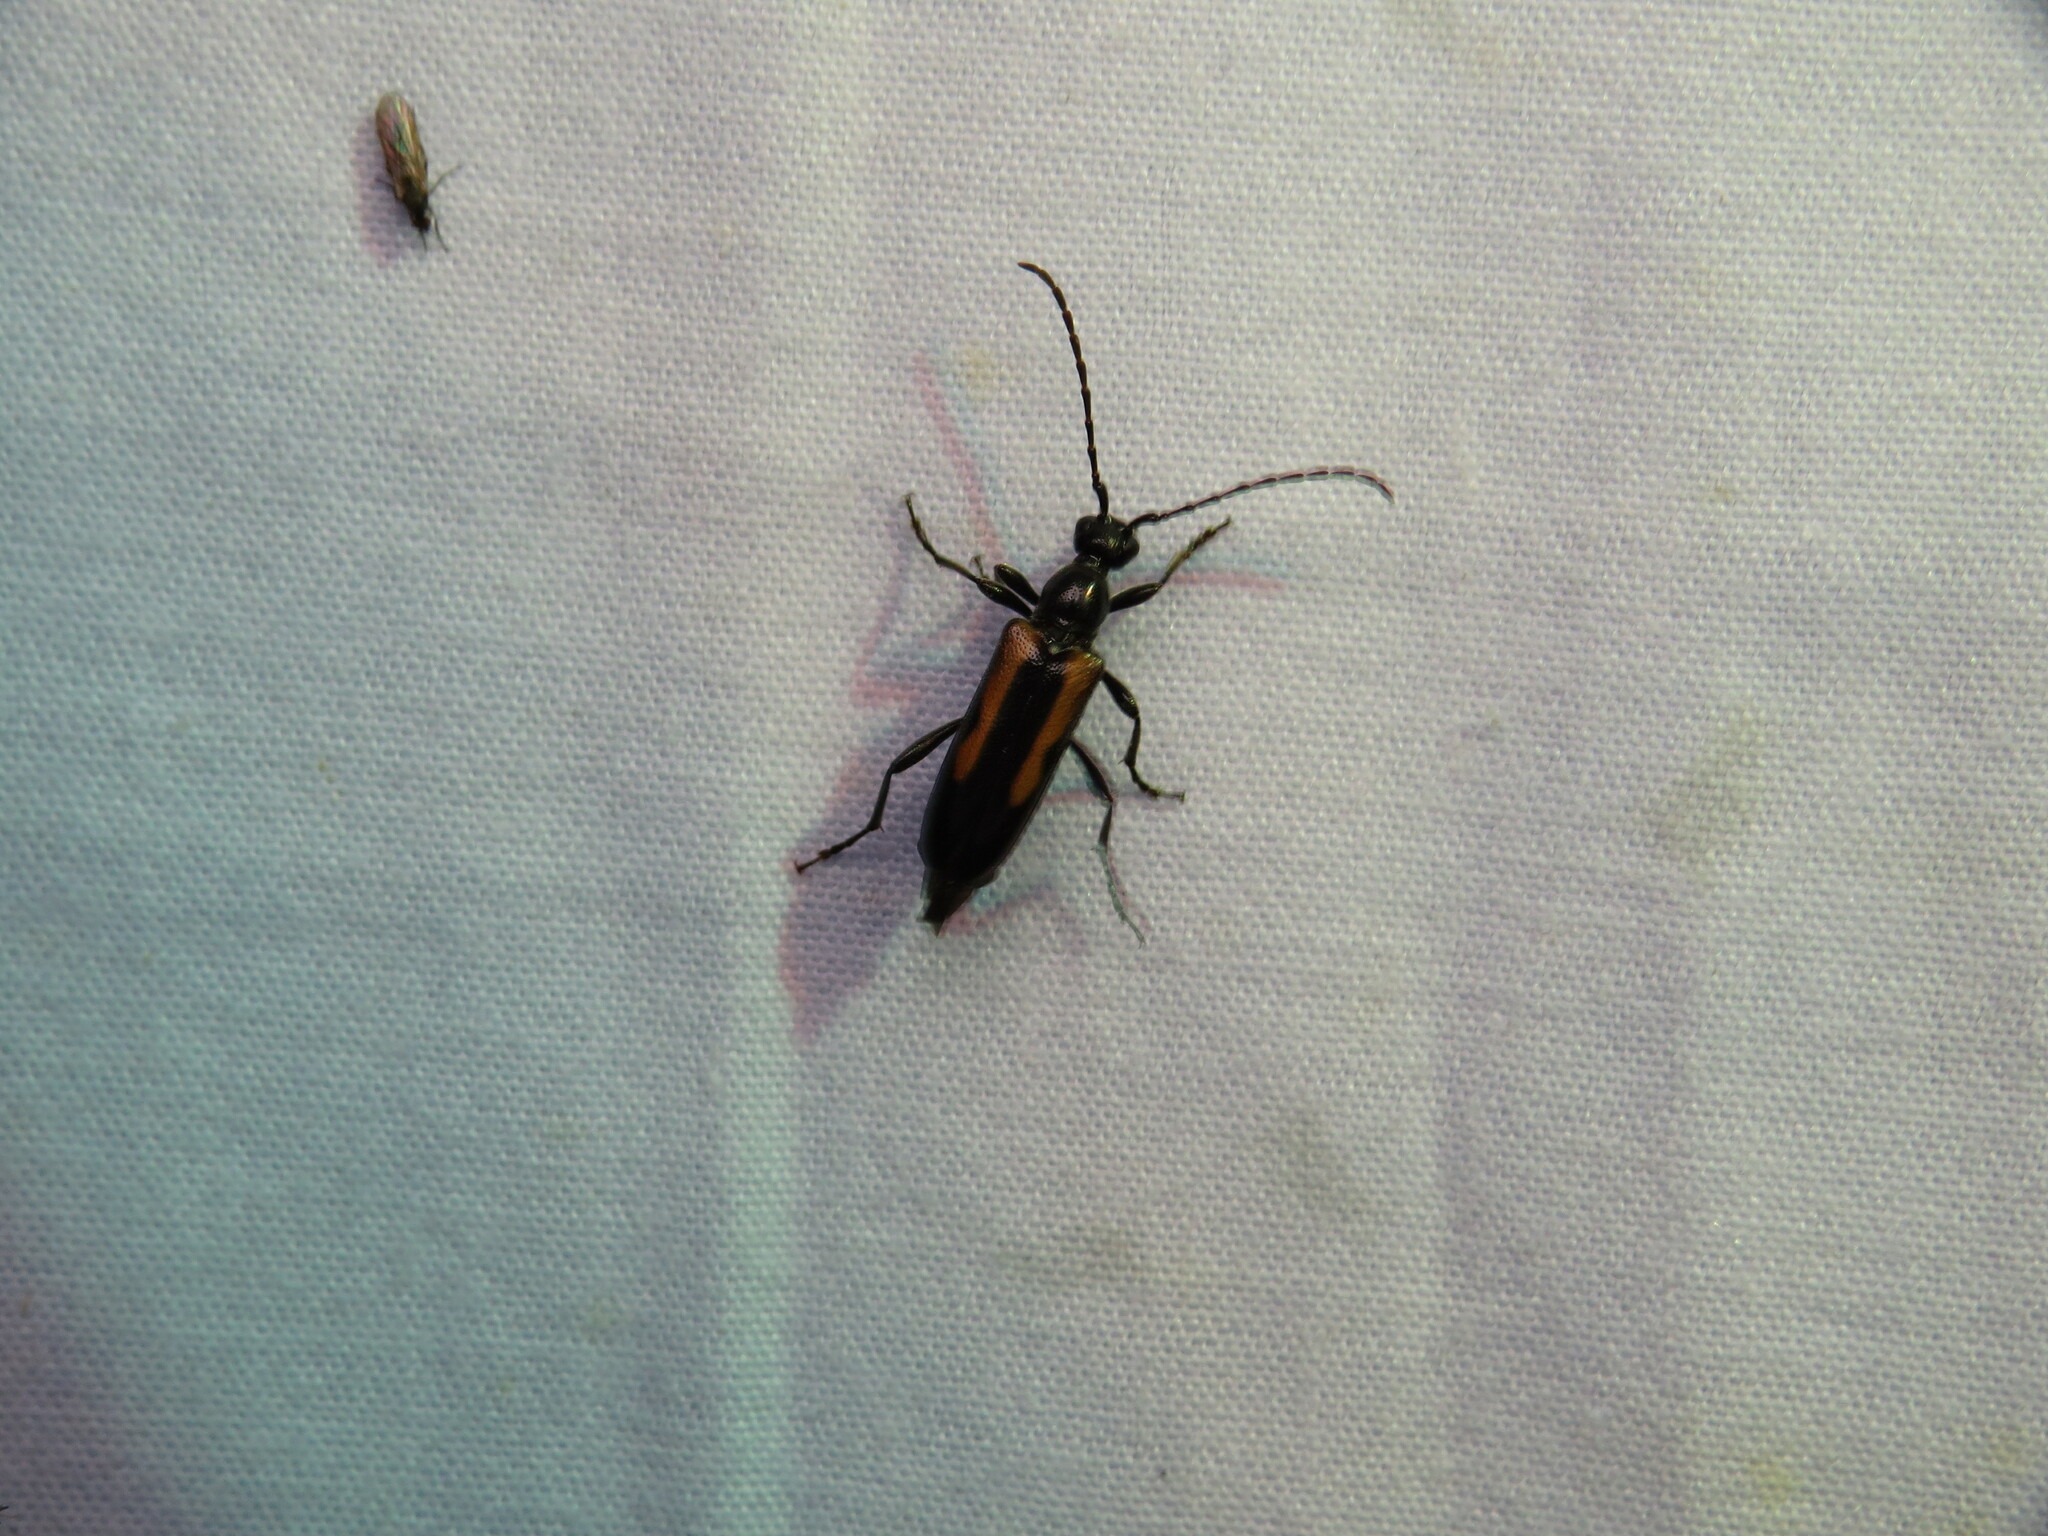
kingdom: Animalia
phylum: Arthropoda
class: Insecta
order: Coleoptera
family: Cerambycidae
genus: Strangalepta
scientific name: Strangalepta abbreviata
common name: Strangalepta flower longhorn beetle
